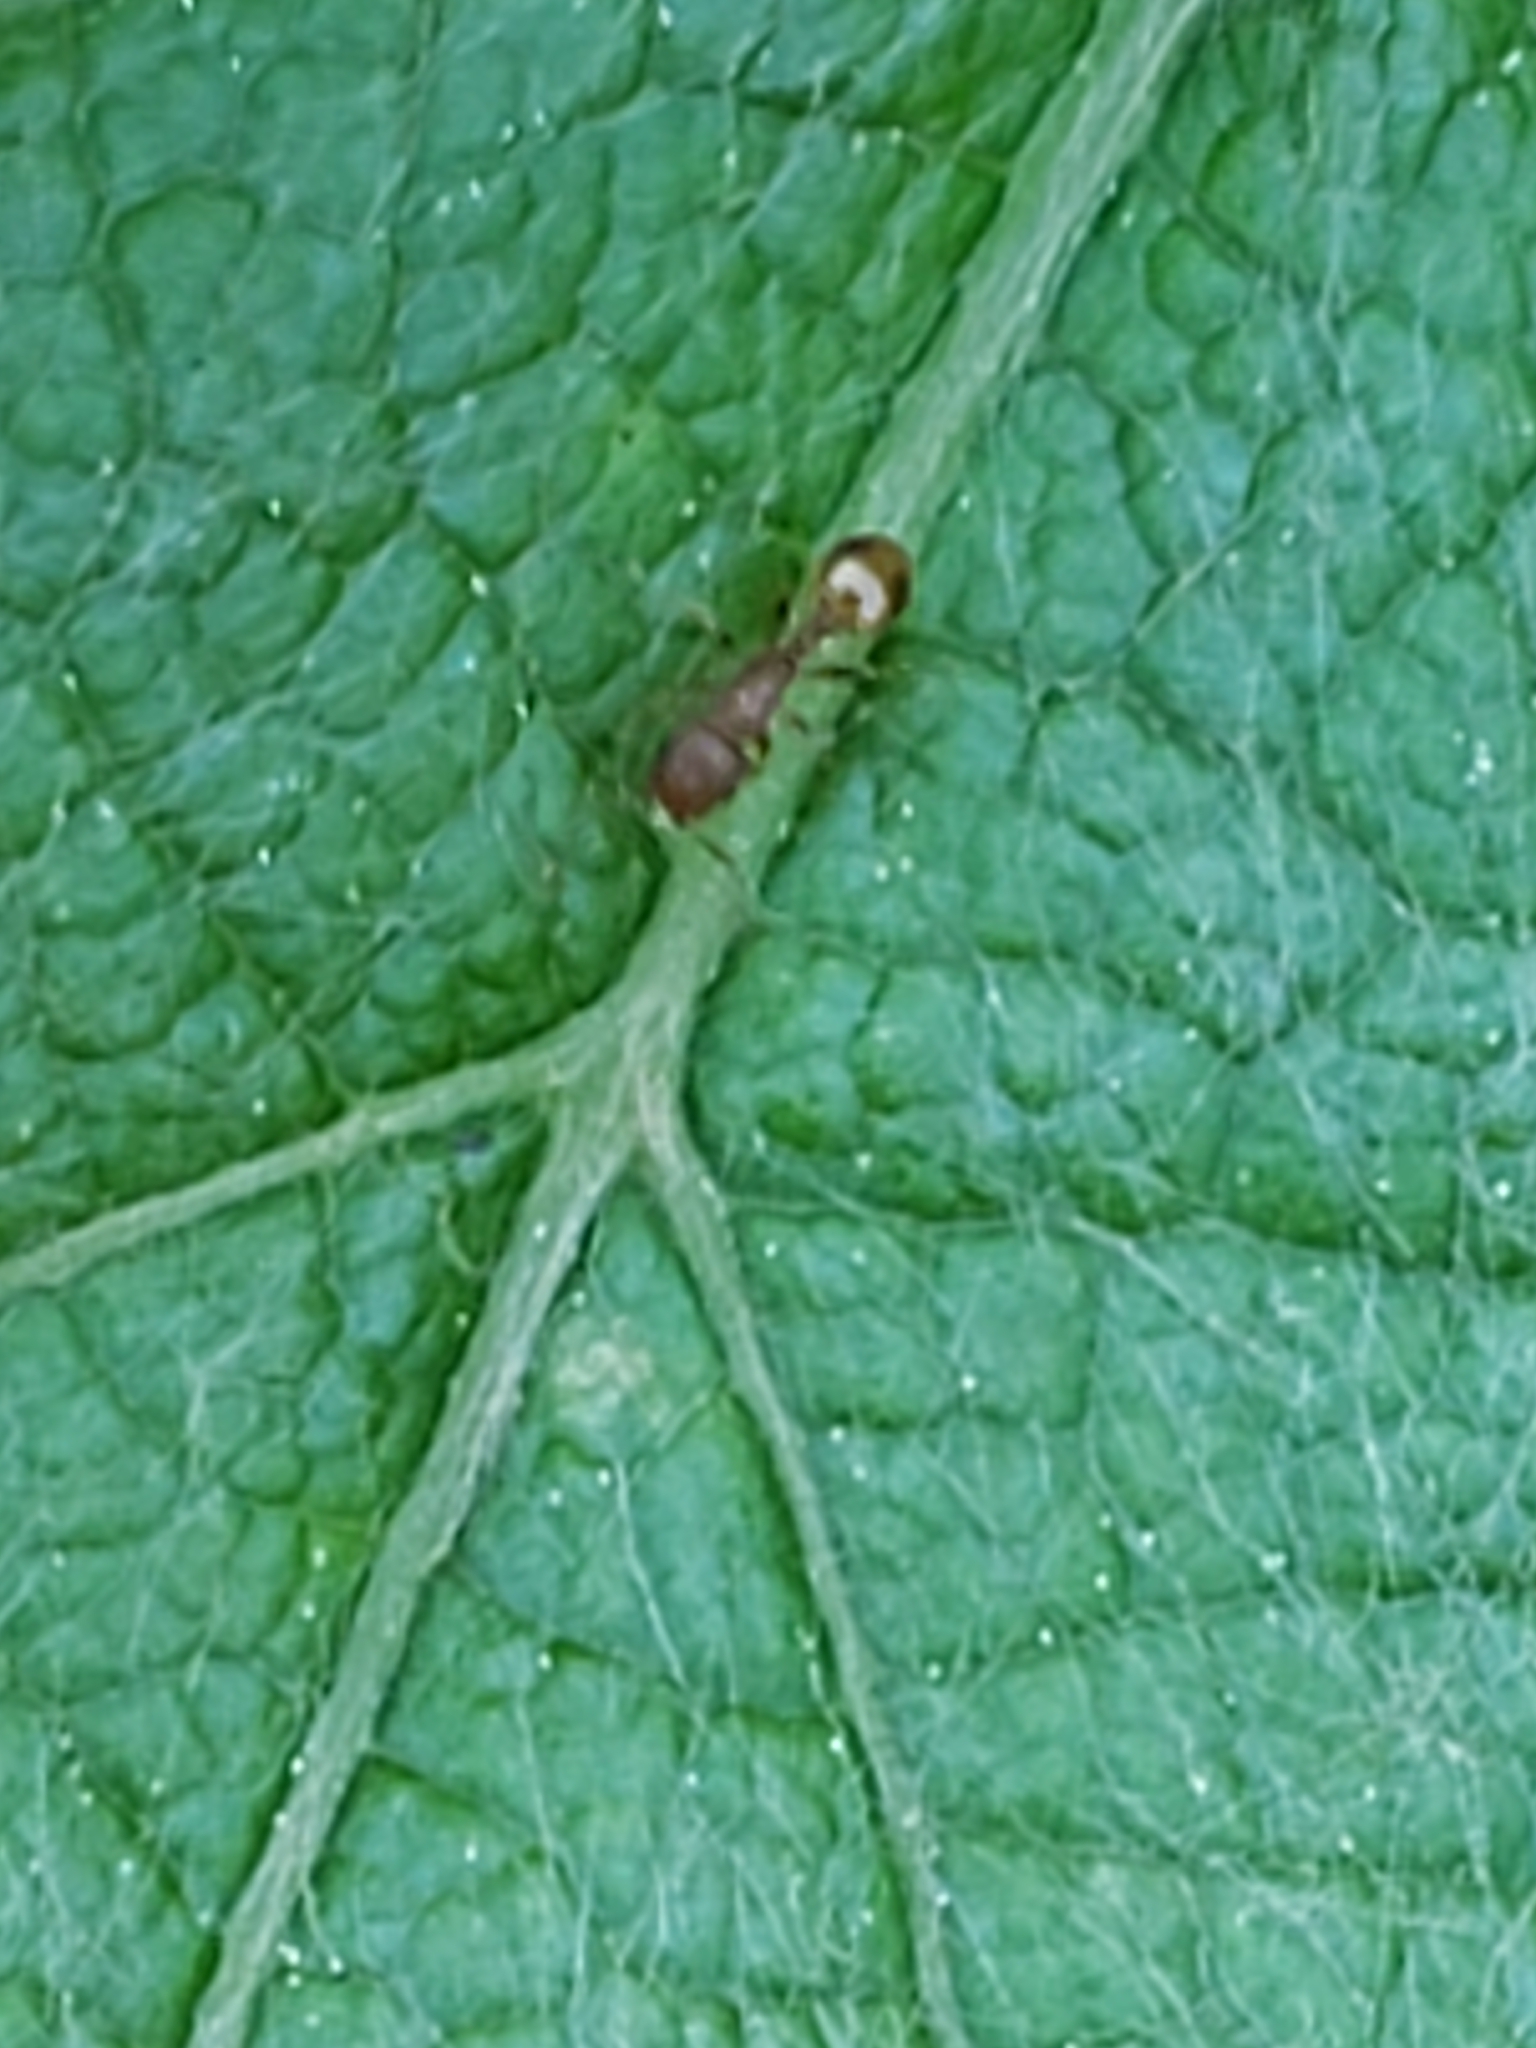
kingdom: Animalia
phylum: Arthropoda
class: Insecta
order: Hymenoptera
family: Formicidae
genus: Temnothorax
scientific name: Temnothorax curvispinosus
